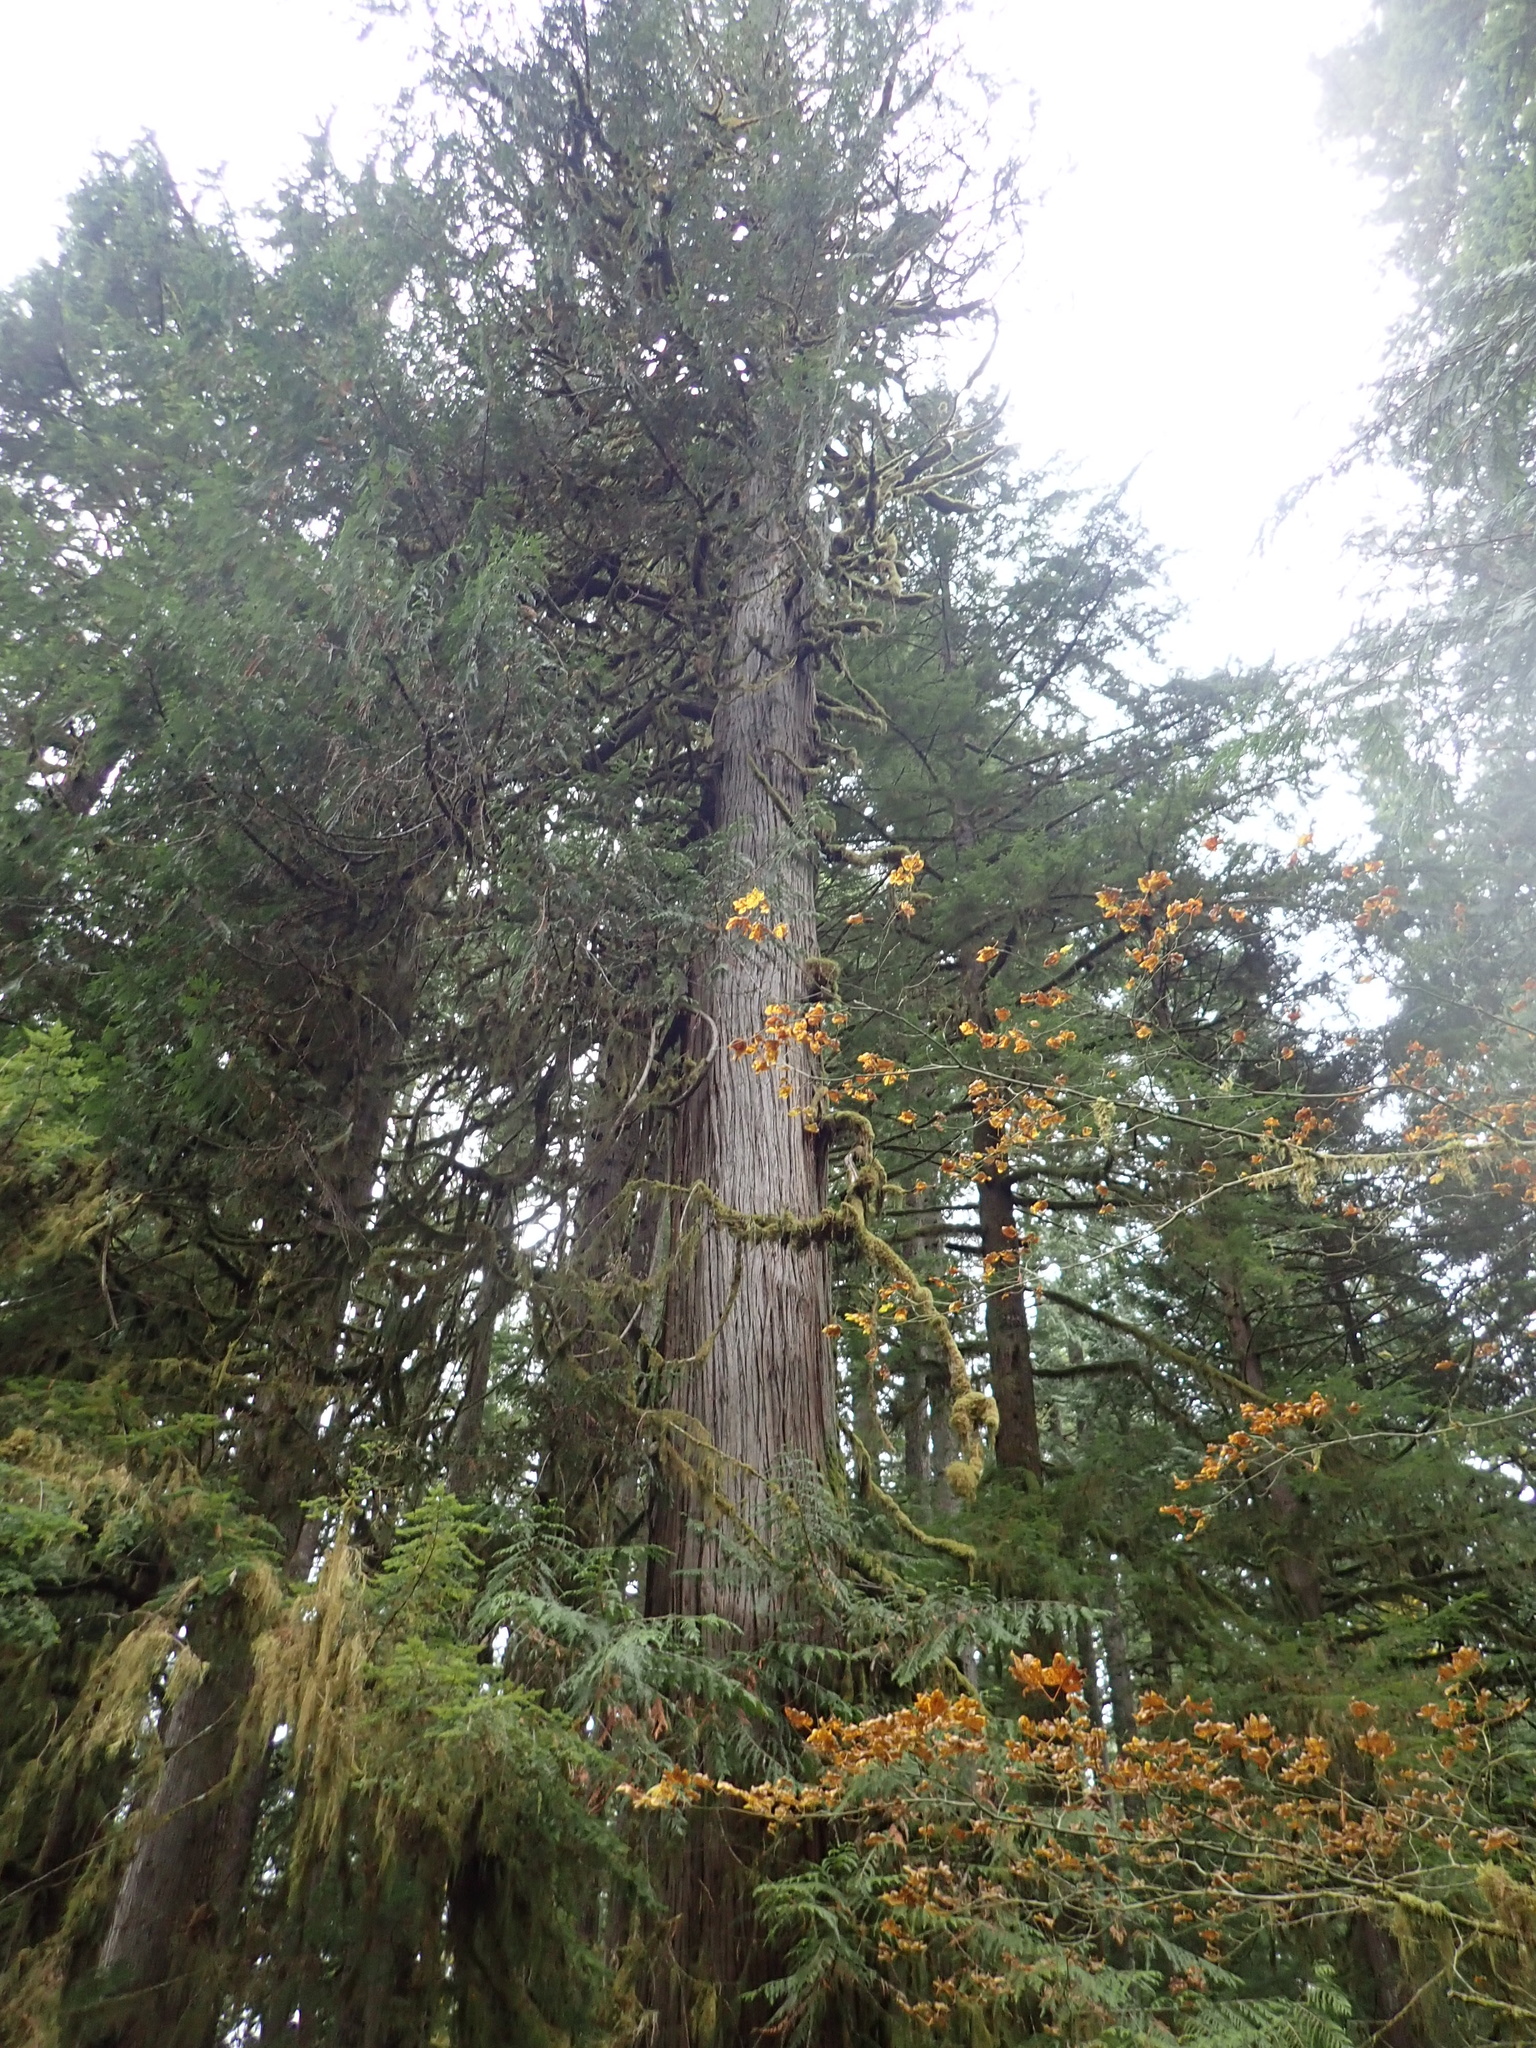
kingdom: Plantae
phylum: Tracheophyta
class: Pinopsida
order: Pinales
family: Cupressaceae
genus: Thuja
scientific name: Thuja plicata
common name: Western red-cedar
